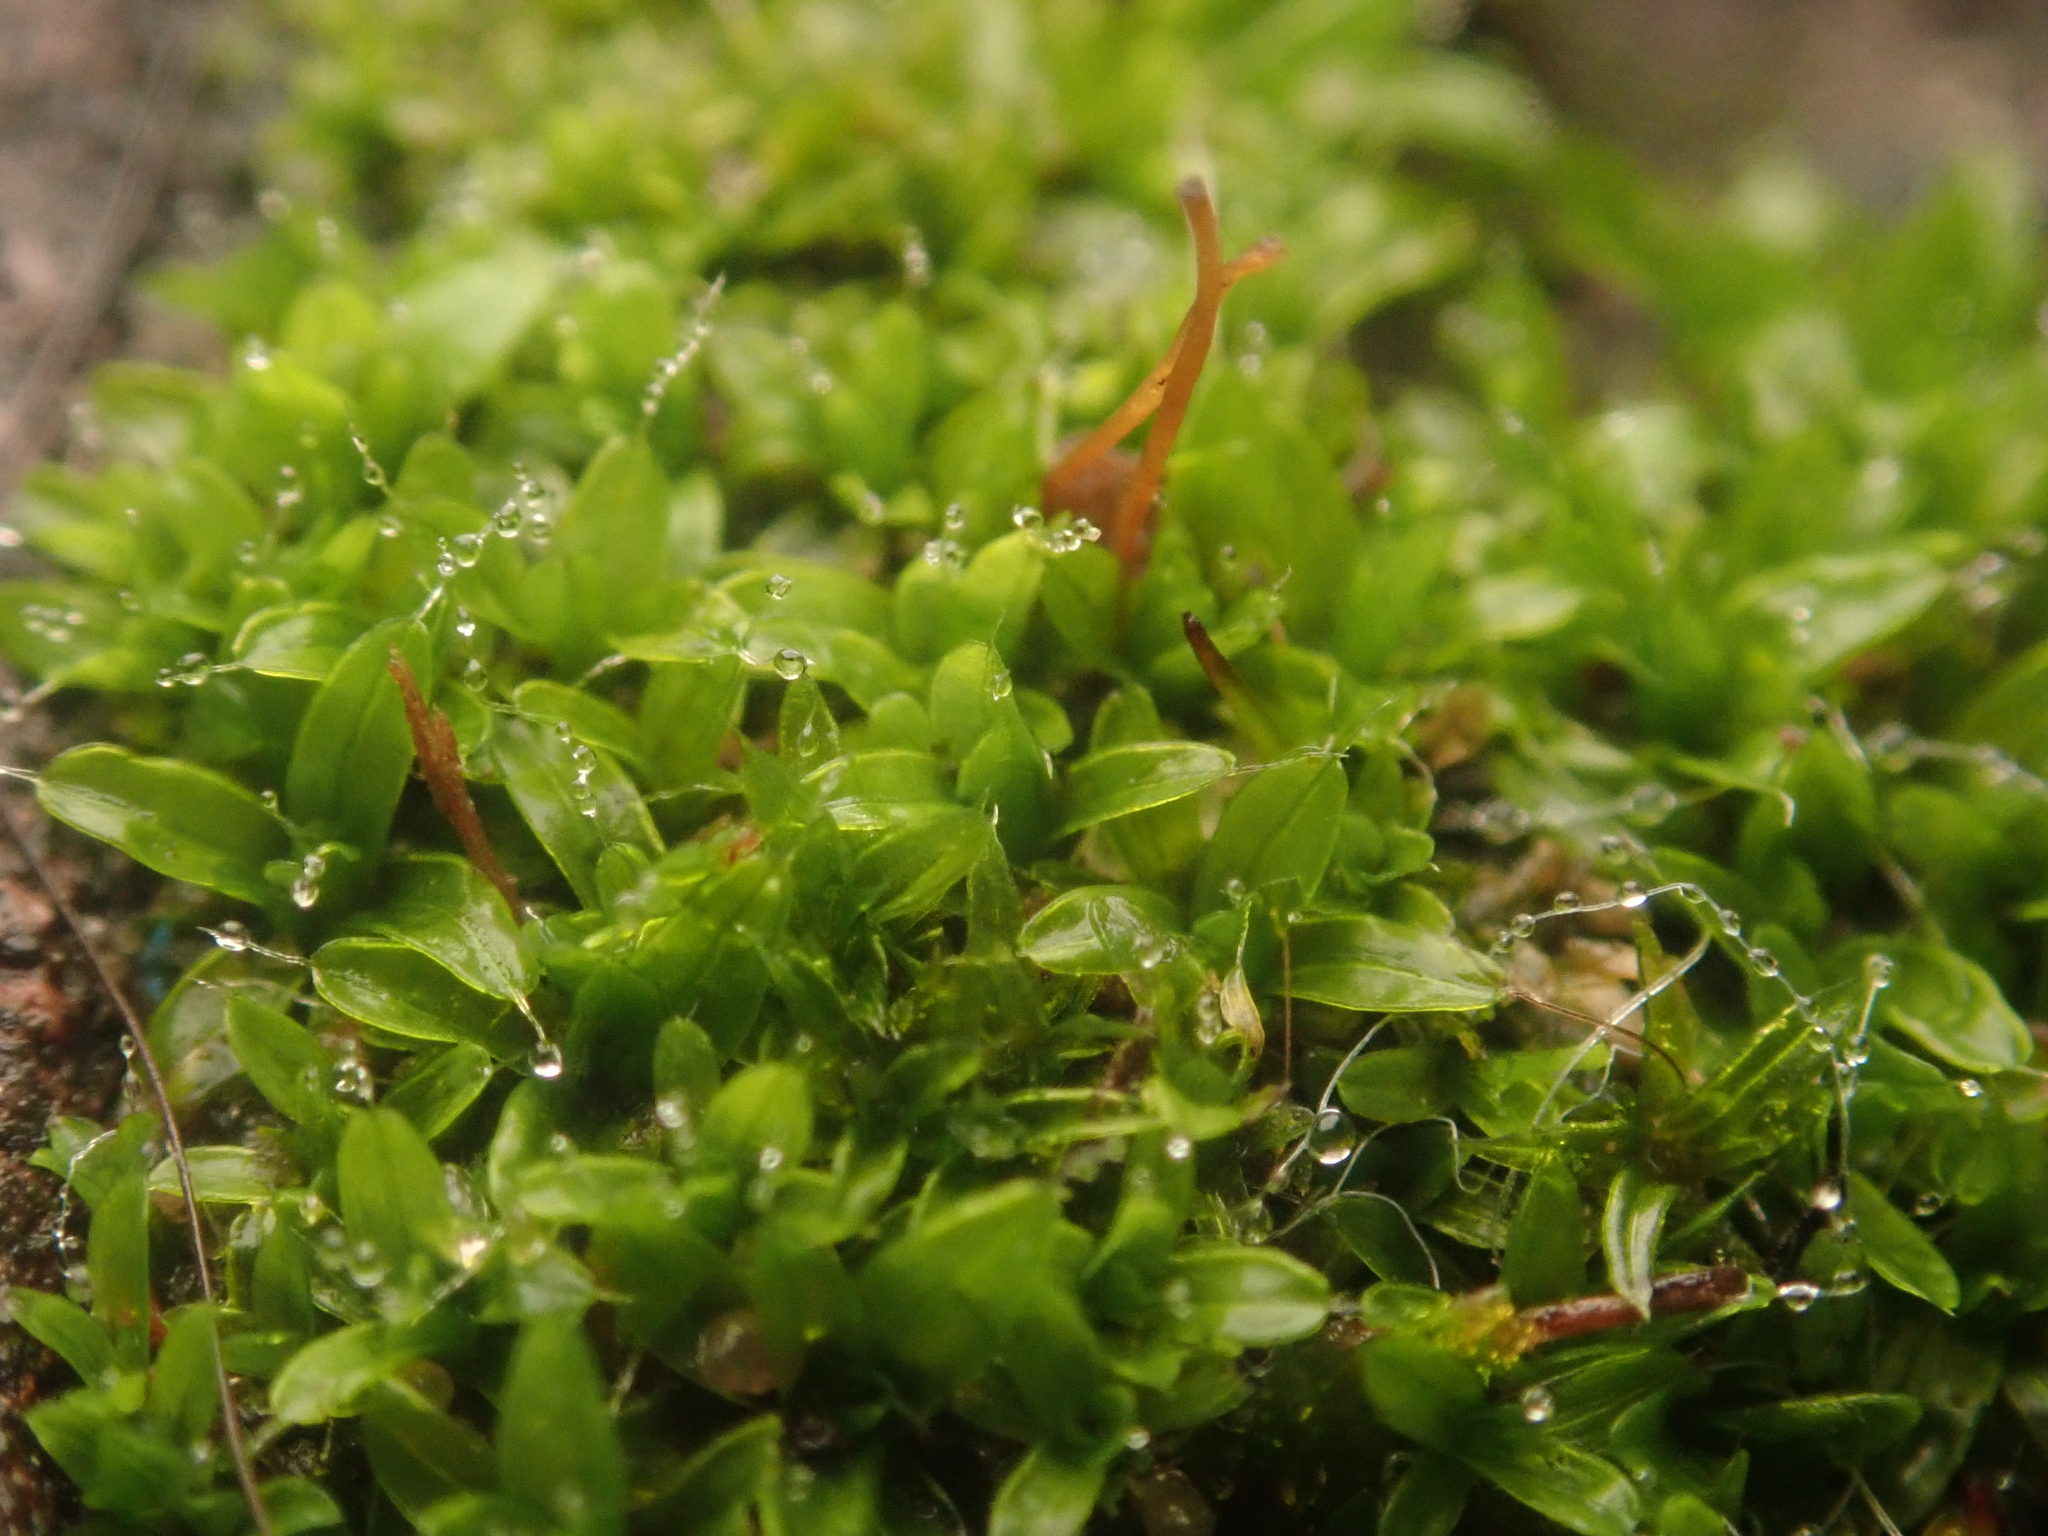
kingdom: Plantae
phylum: Bryophyta
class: Bryopsida
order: Pottiales
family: Pottiaceae
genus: Tortula
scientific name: Tortula muralis
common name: Wall screw-moss
